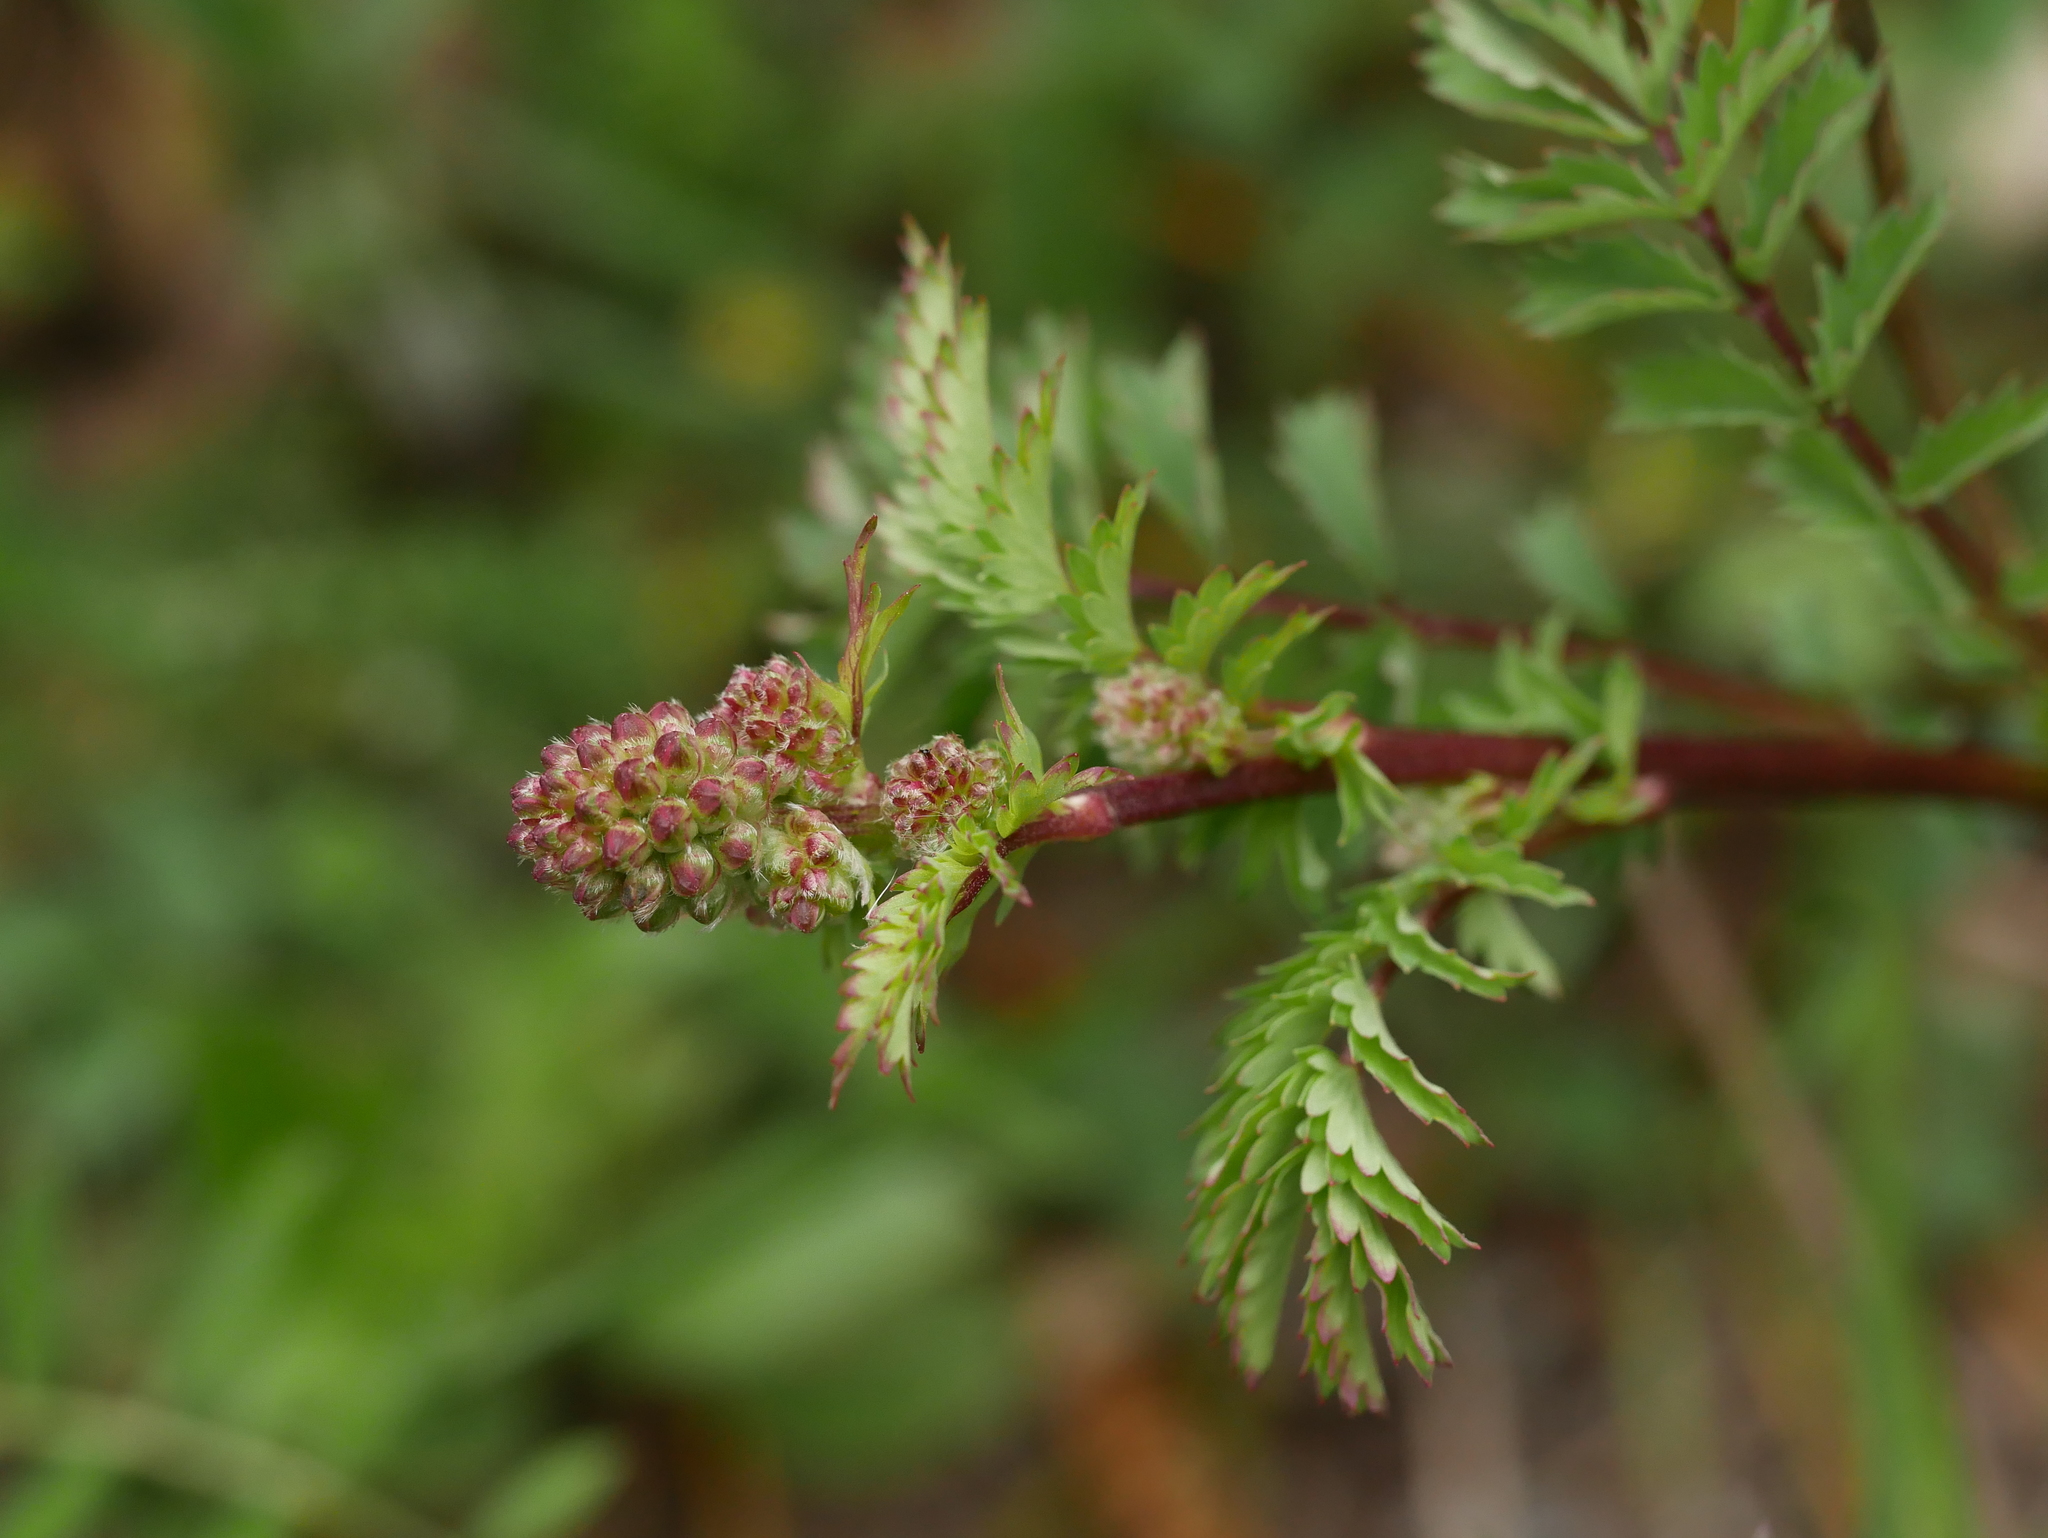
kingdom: Plantae
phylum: Tracheophyta
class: Magnoliopsida
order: Rosales
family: Rosaceae
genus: Poterium
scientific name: Poterium sanguisorba
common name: Salad burnet
